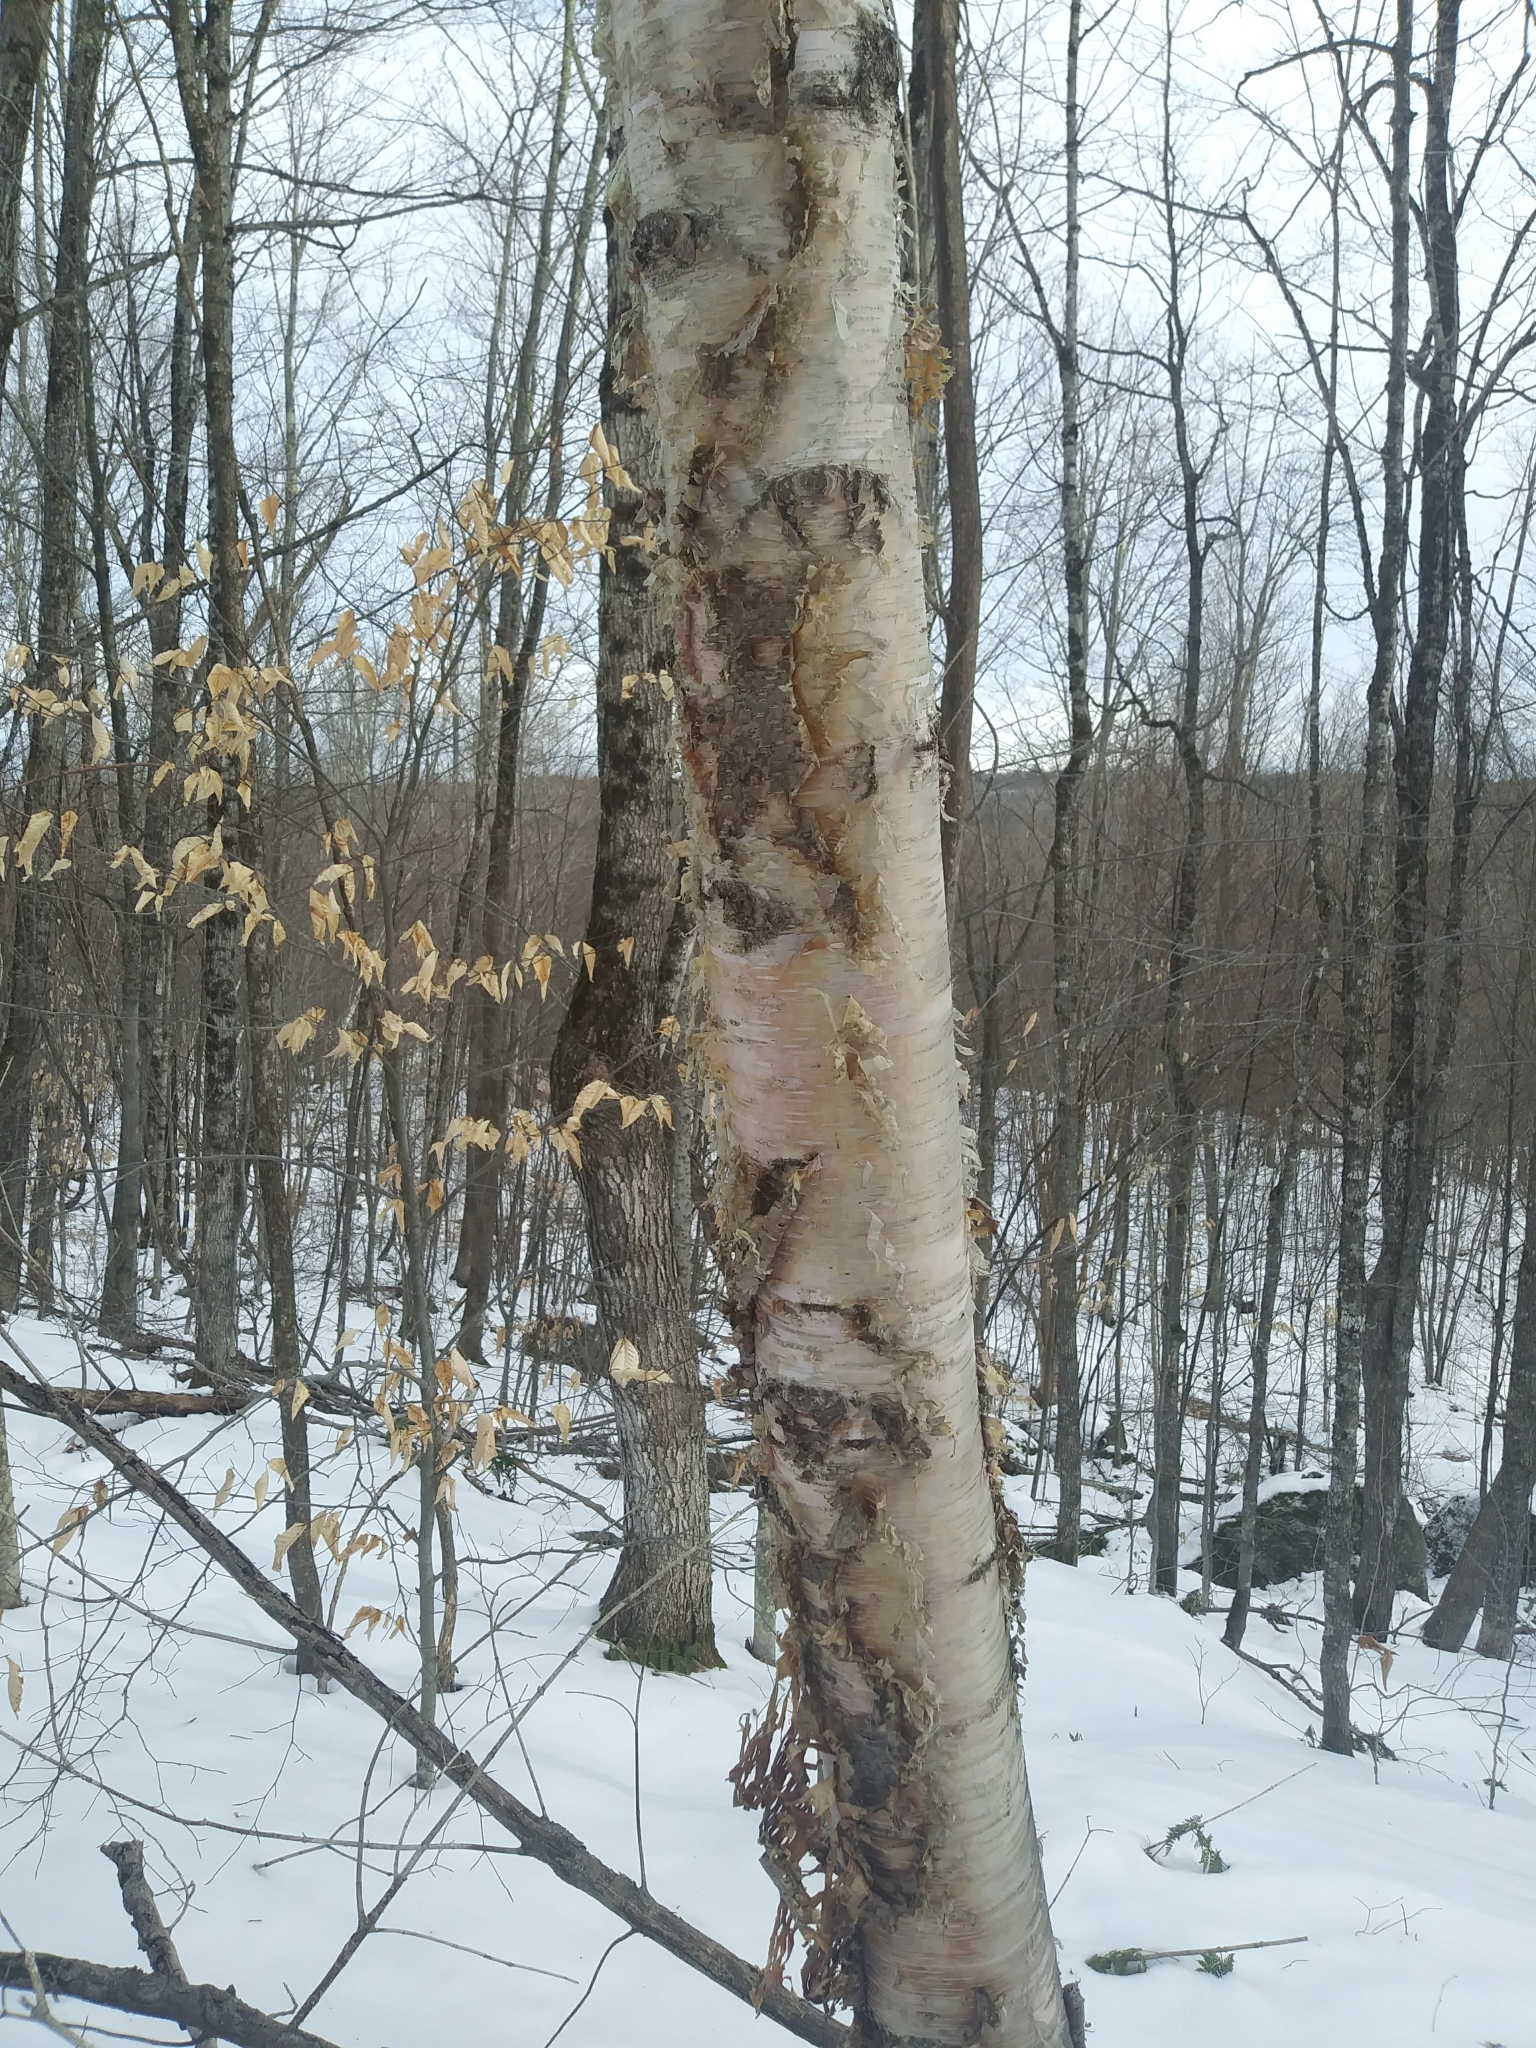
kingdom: Plantae
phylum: Tracheophyta
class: Magnoliopsida
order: Fagales
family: Betulaceae
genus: Betula
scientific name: Betula papyrifera
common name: Paper birch
